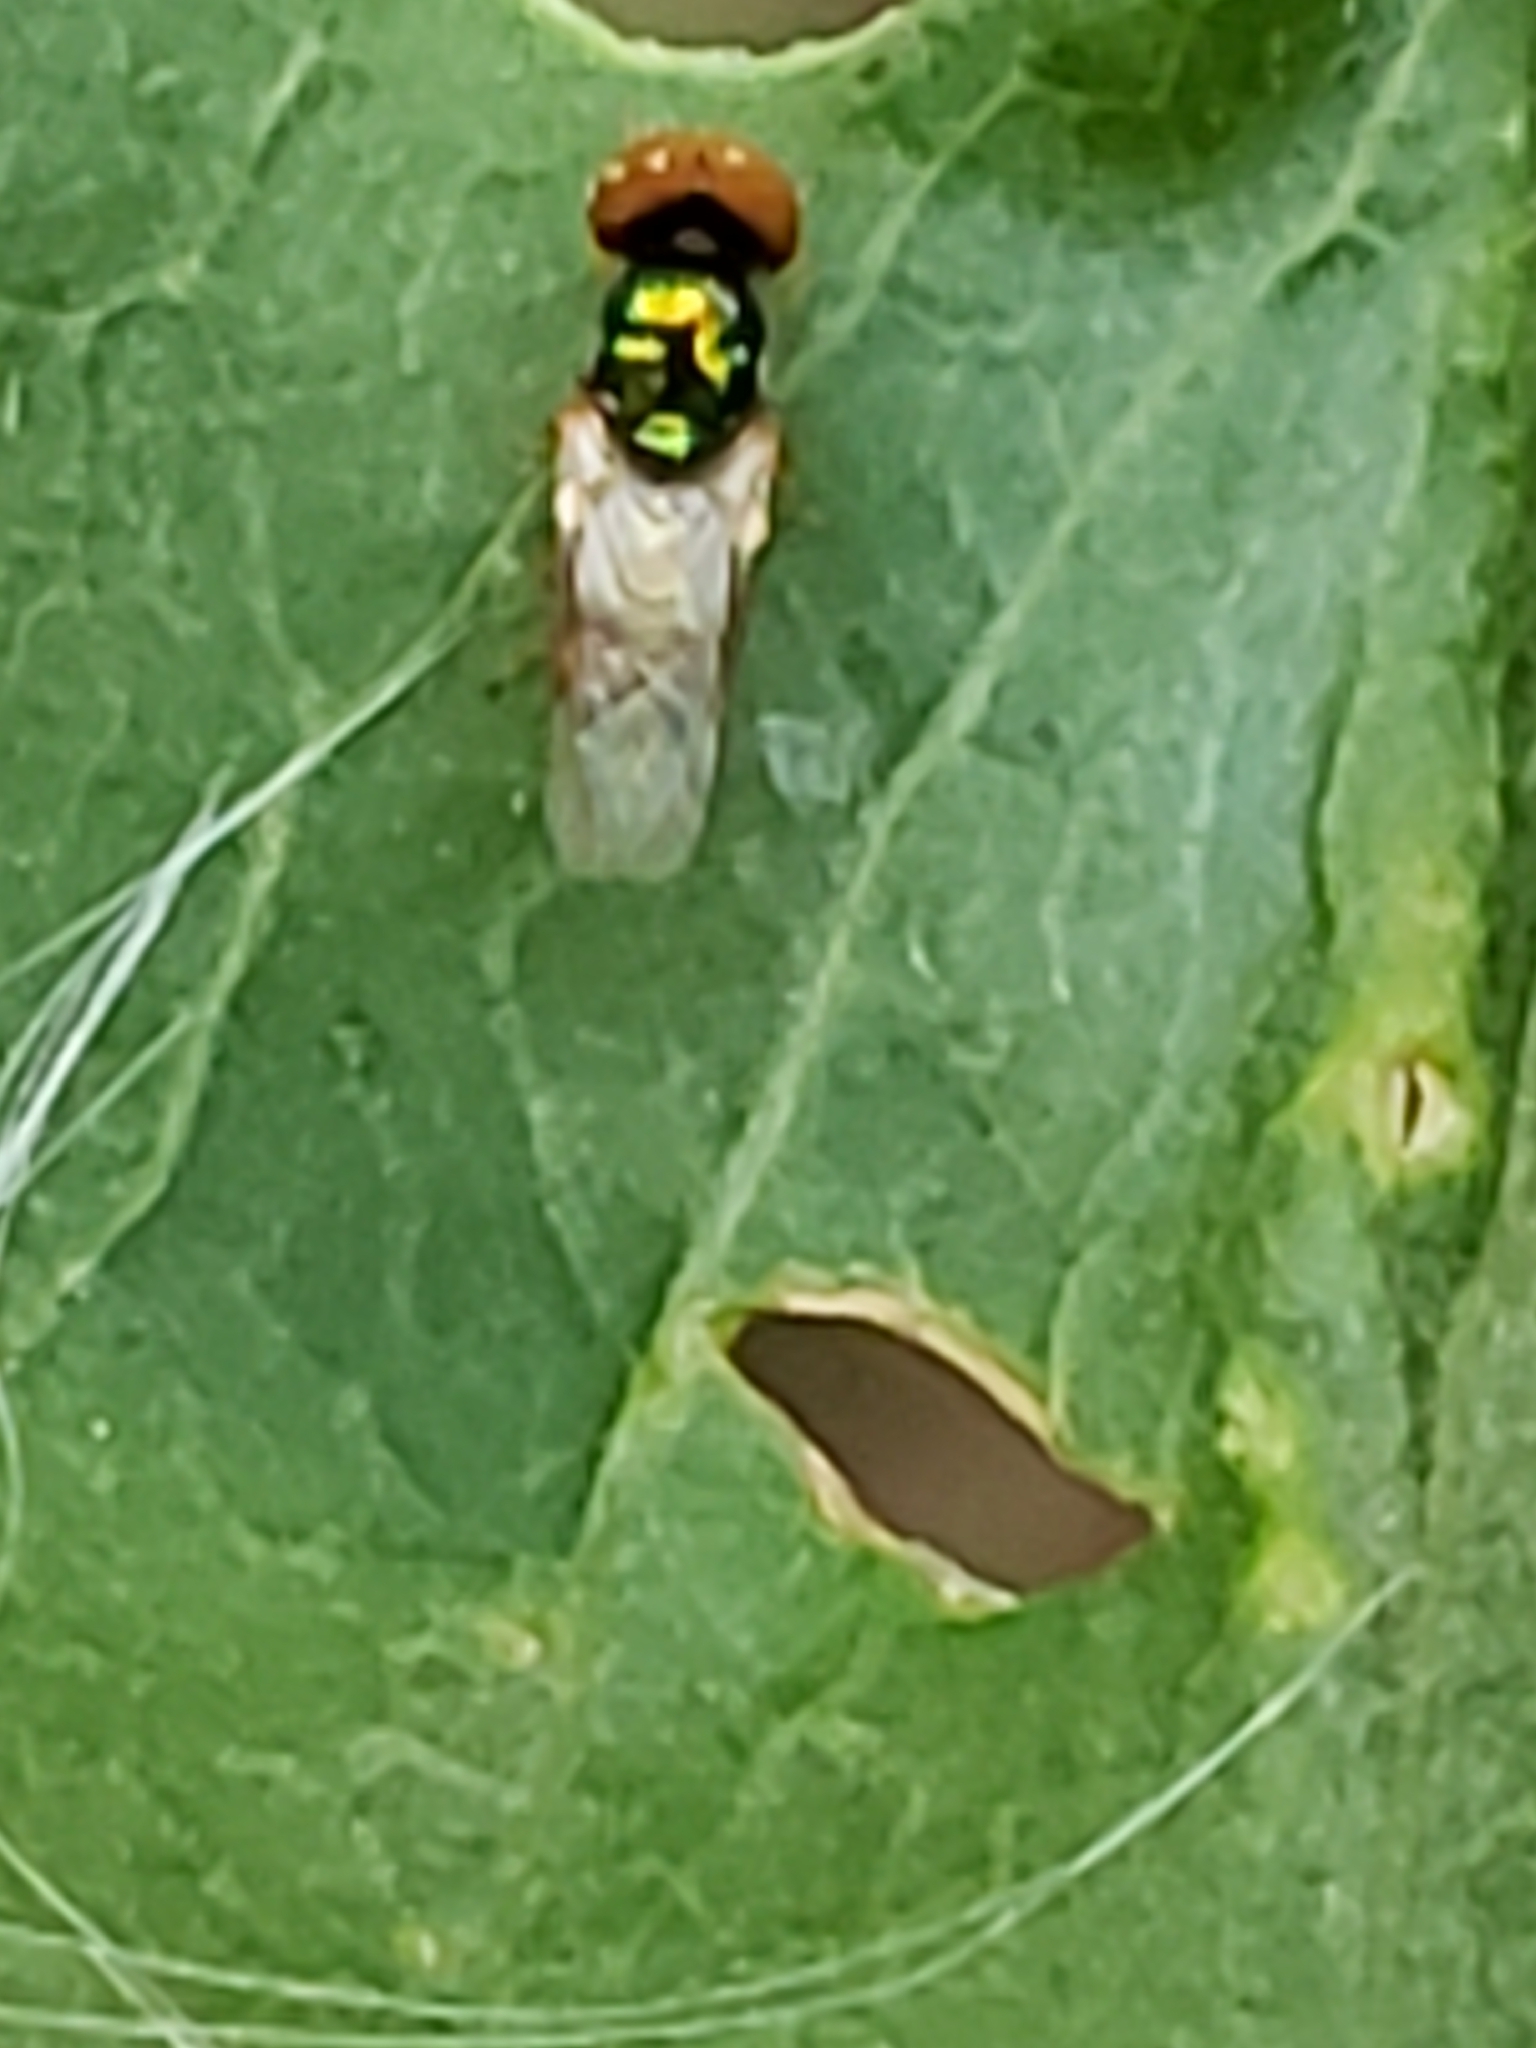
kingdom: Animalia
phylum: Arthropoda
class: Insecta
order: Diptera
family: Stratiomyidae
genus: Microchrysa
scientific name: Microchrysa flaviventris
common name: Soldier fly
